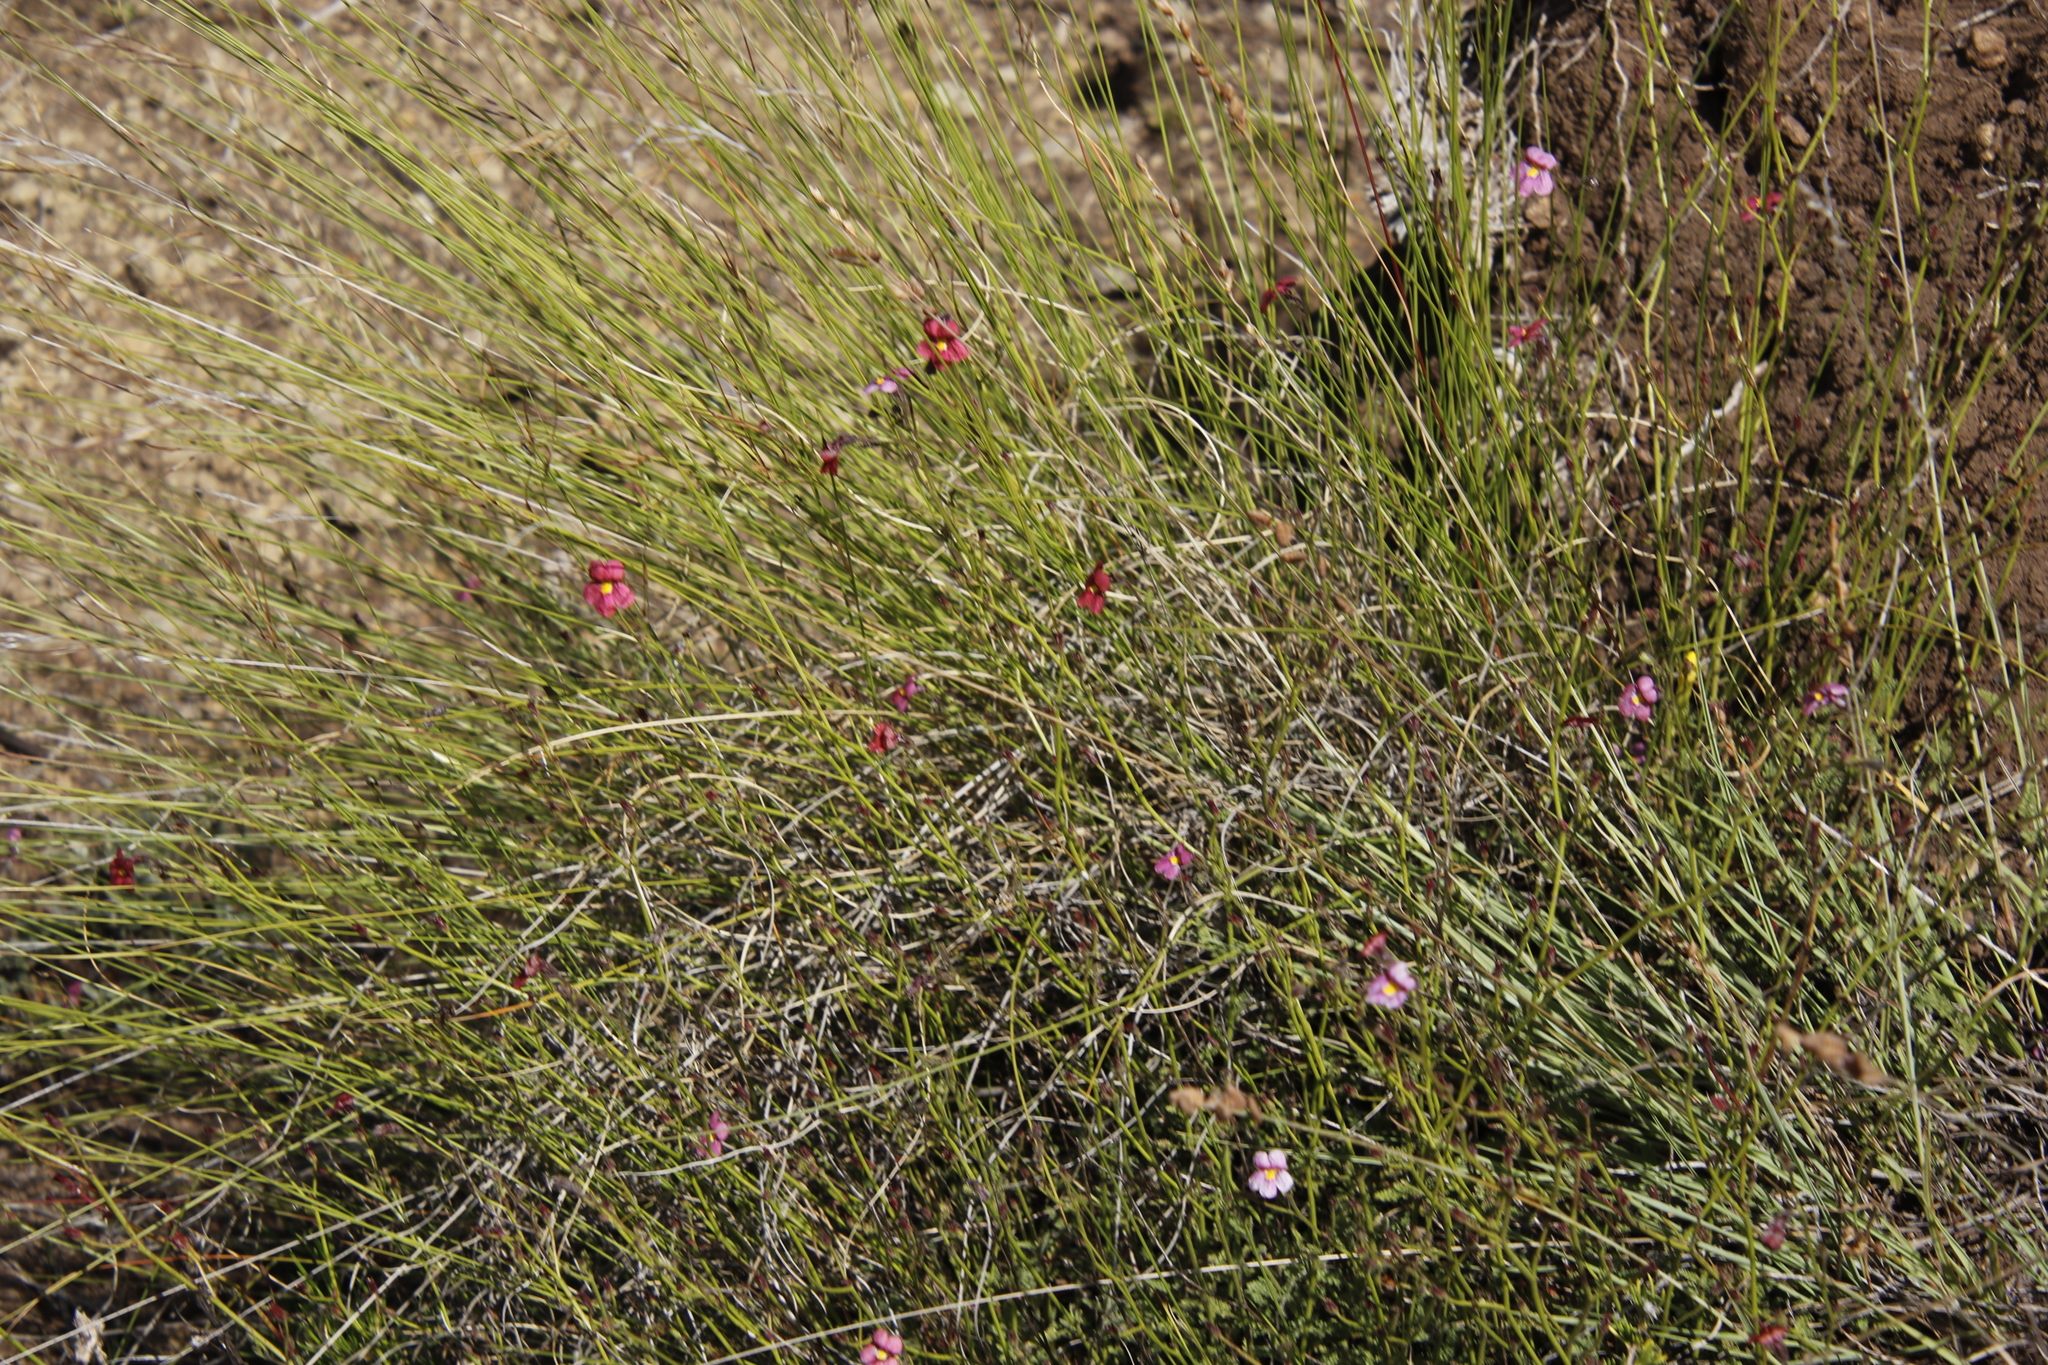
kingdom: Plantae
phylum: Tracheophyta
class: Magnoliopsida
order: Lamiales
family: Scrophulariaceae
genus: Jamesbrittenia
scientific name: Jamesbrittenia breviflora
